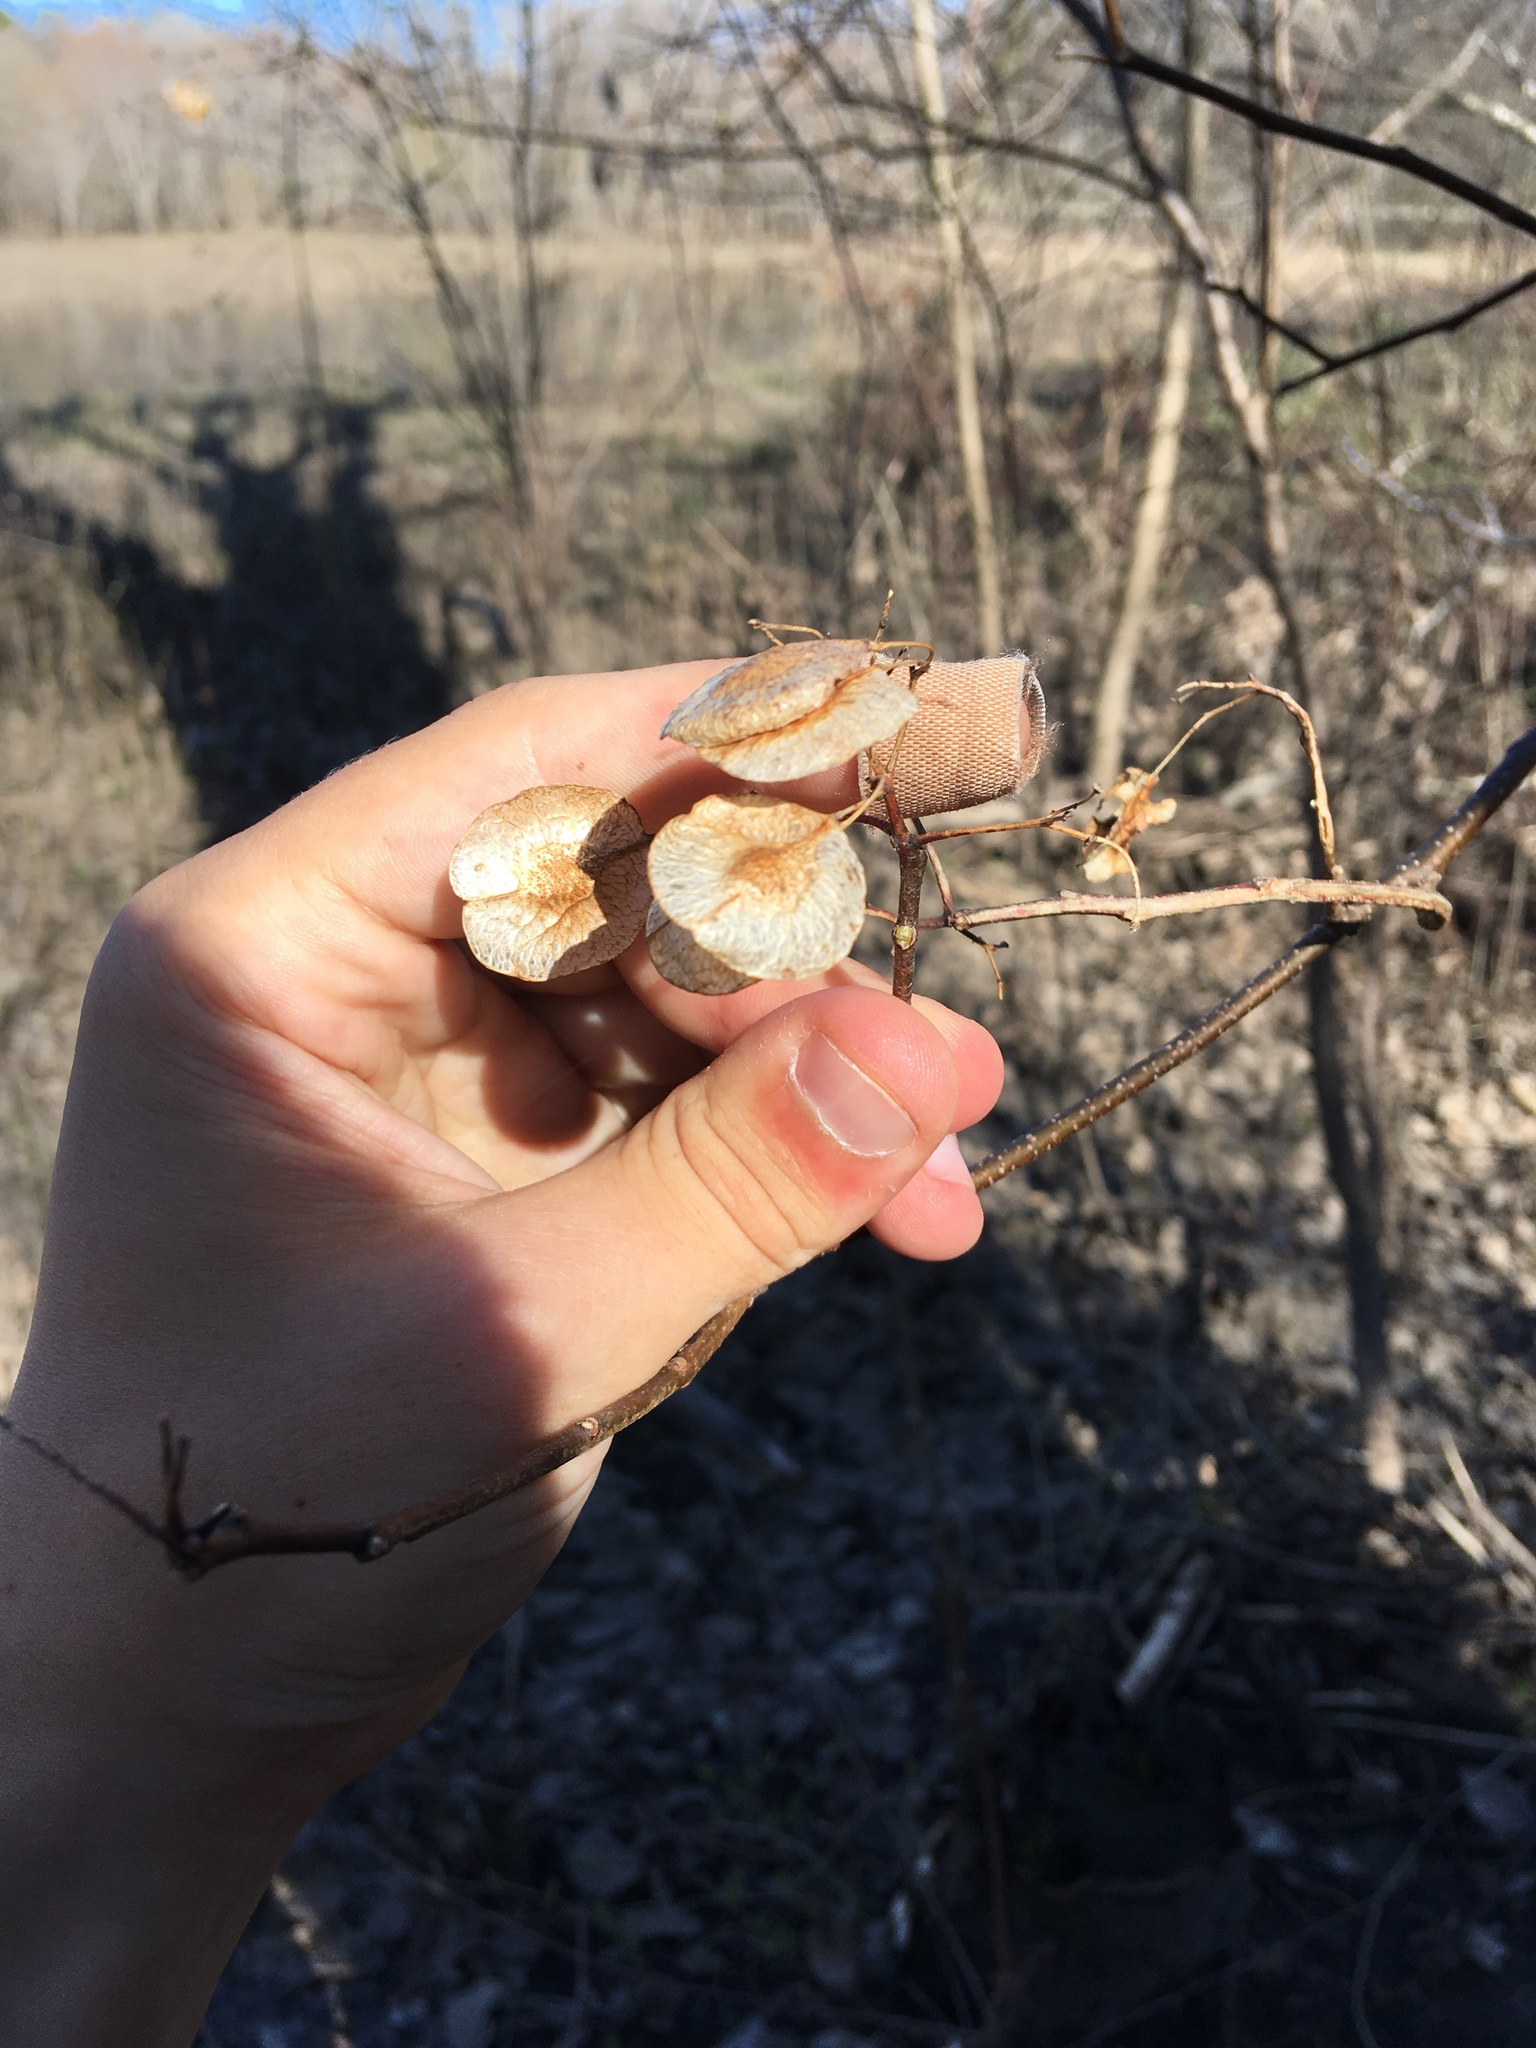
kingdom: Plantae
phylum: Tracheophyta
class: Magnoliopsida
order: Sapindales
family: Rutaceae
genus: Ptelea
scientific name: Ptelea trifoliata
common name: Common hop-tree
